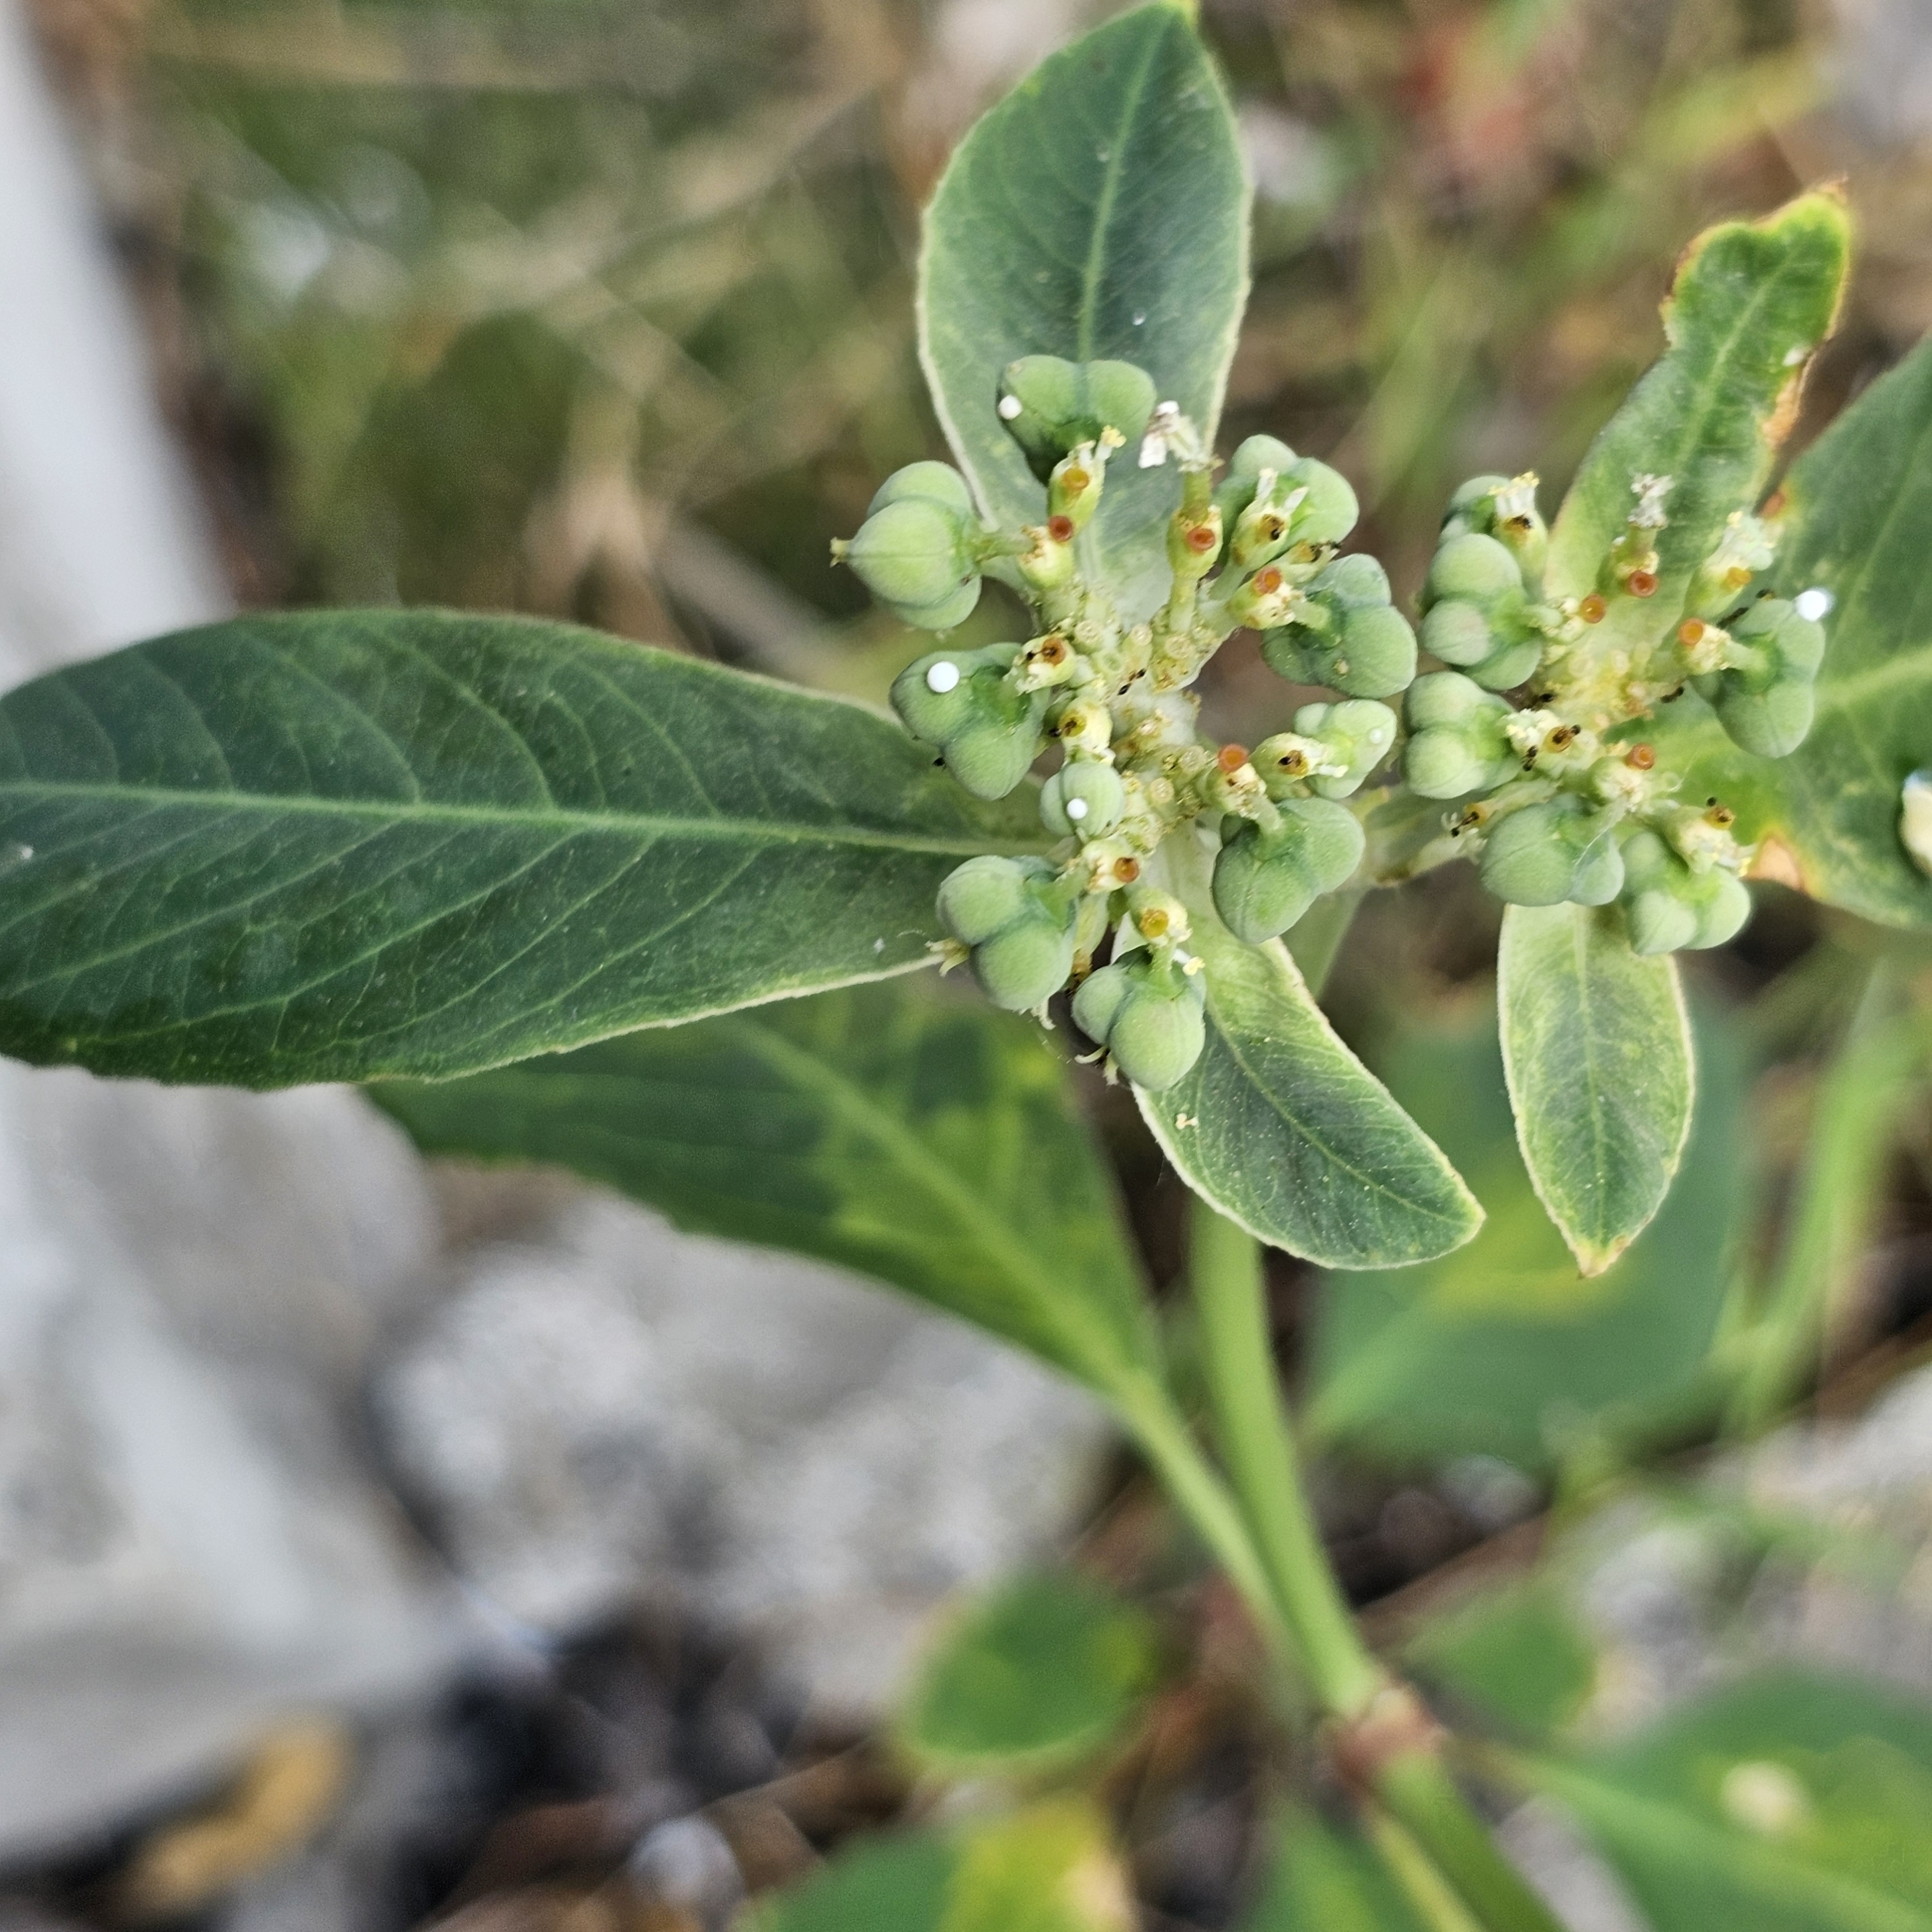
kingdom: Plantae
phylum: Tracheophyta
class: Magnoliopsida
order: Malpighiales
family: Euphorbiaceae
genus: Euphorbia
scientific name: Euphorbia heterophylla
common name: Mexican fireplant
